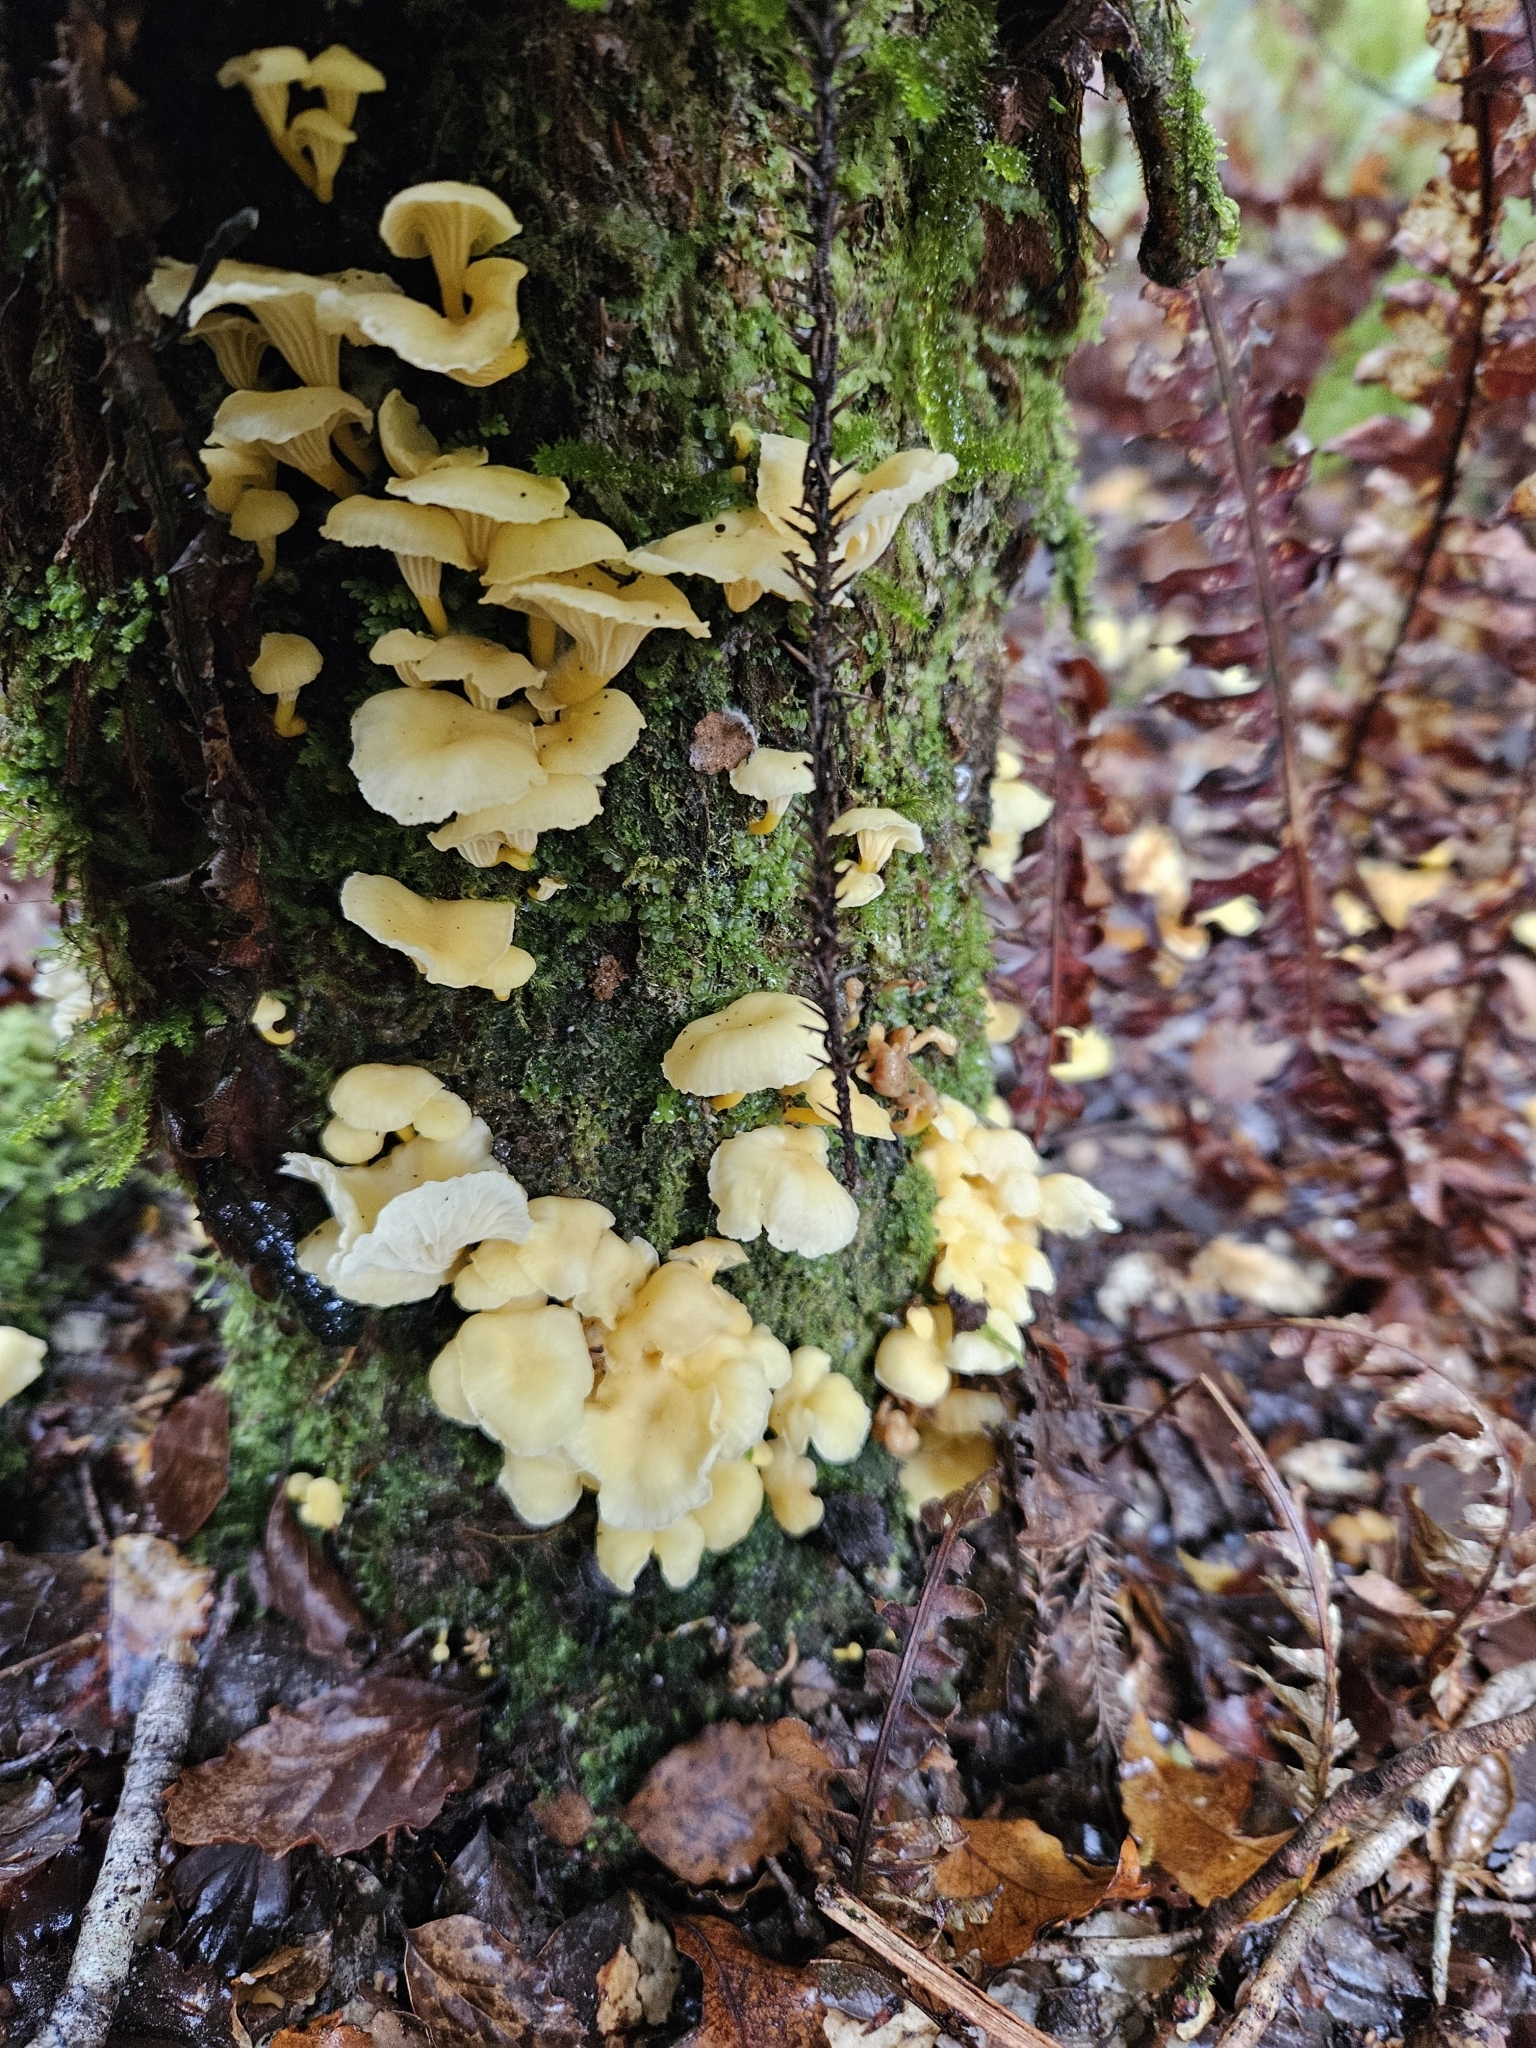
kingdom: Fungi
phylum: Basidiomycota
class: Agaricomycetes
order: Cantharellales
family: Hydnaceae
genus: Cantharellus
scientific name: Cantharellus wellingtonensis
